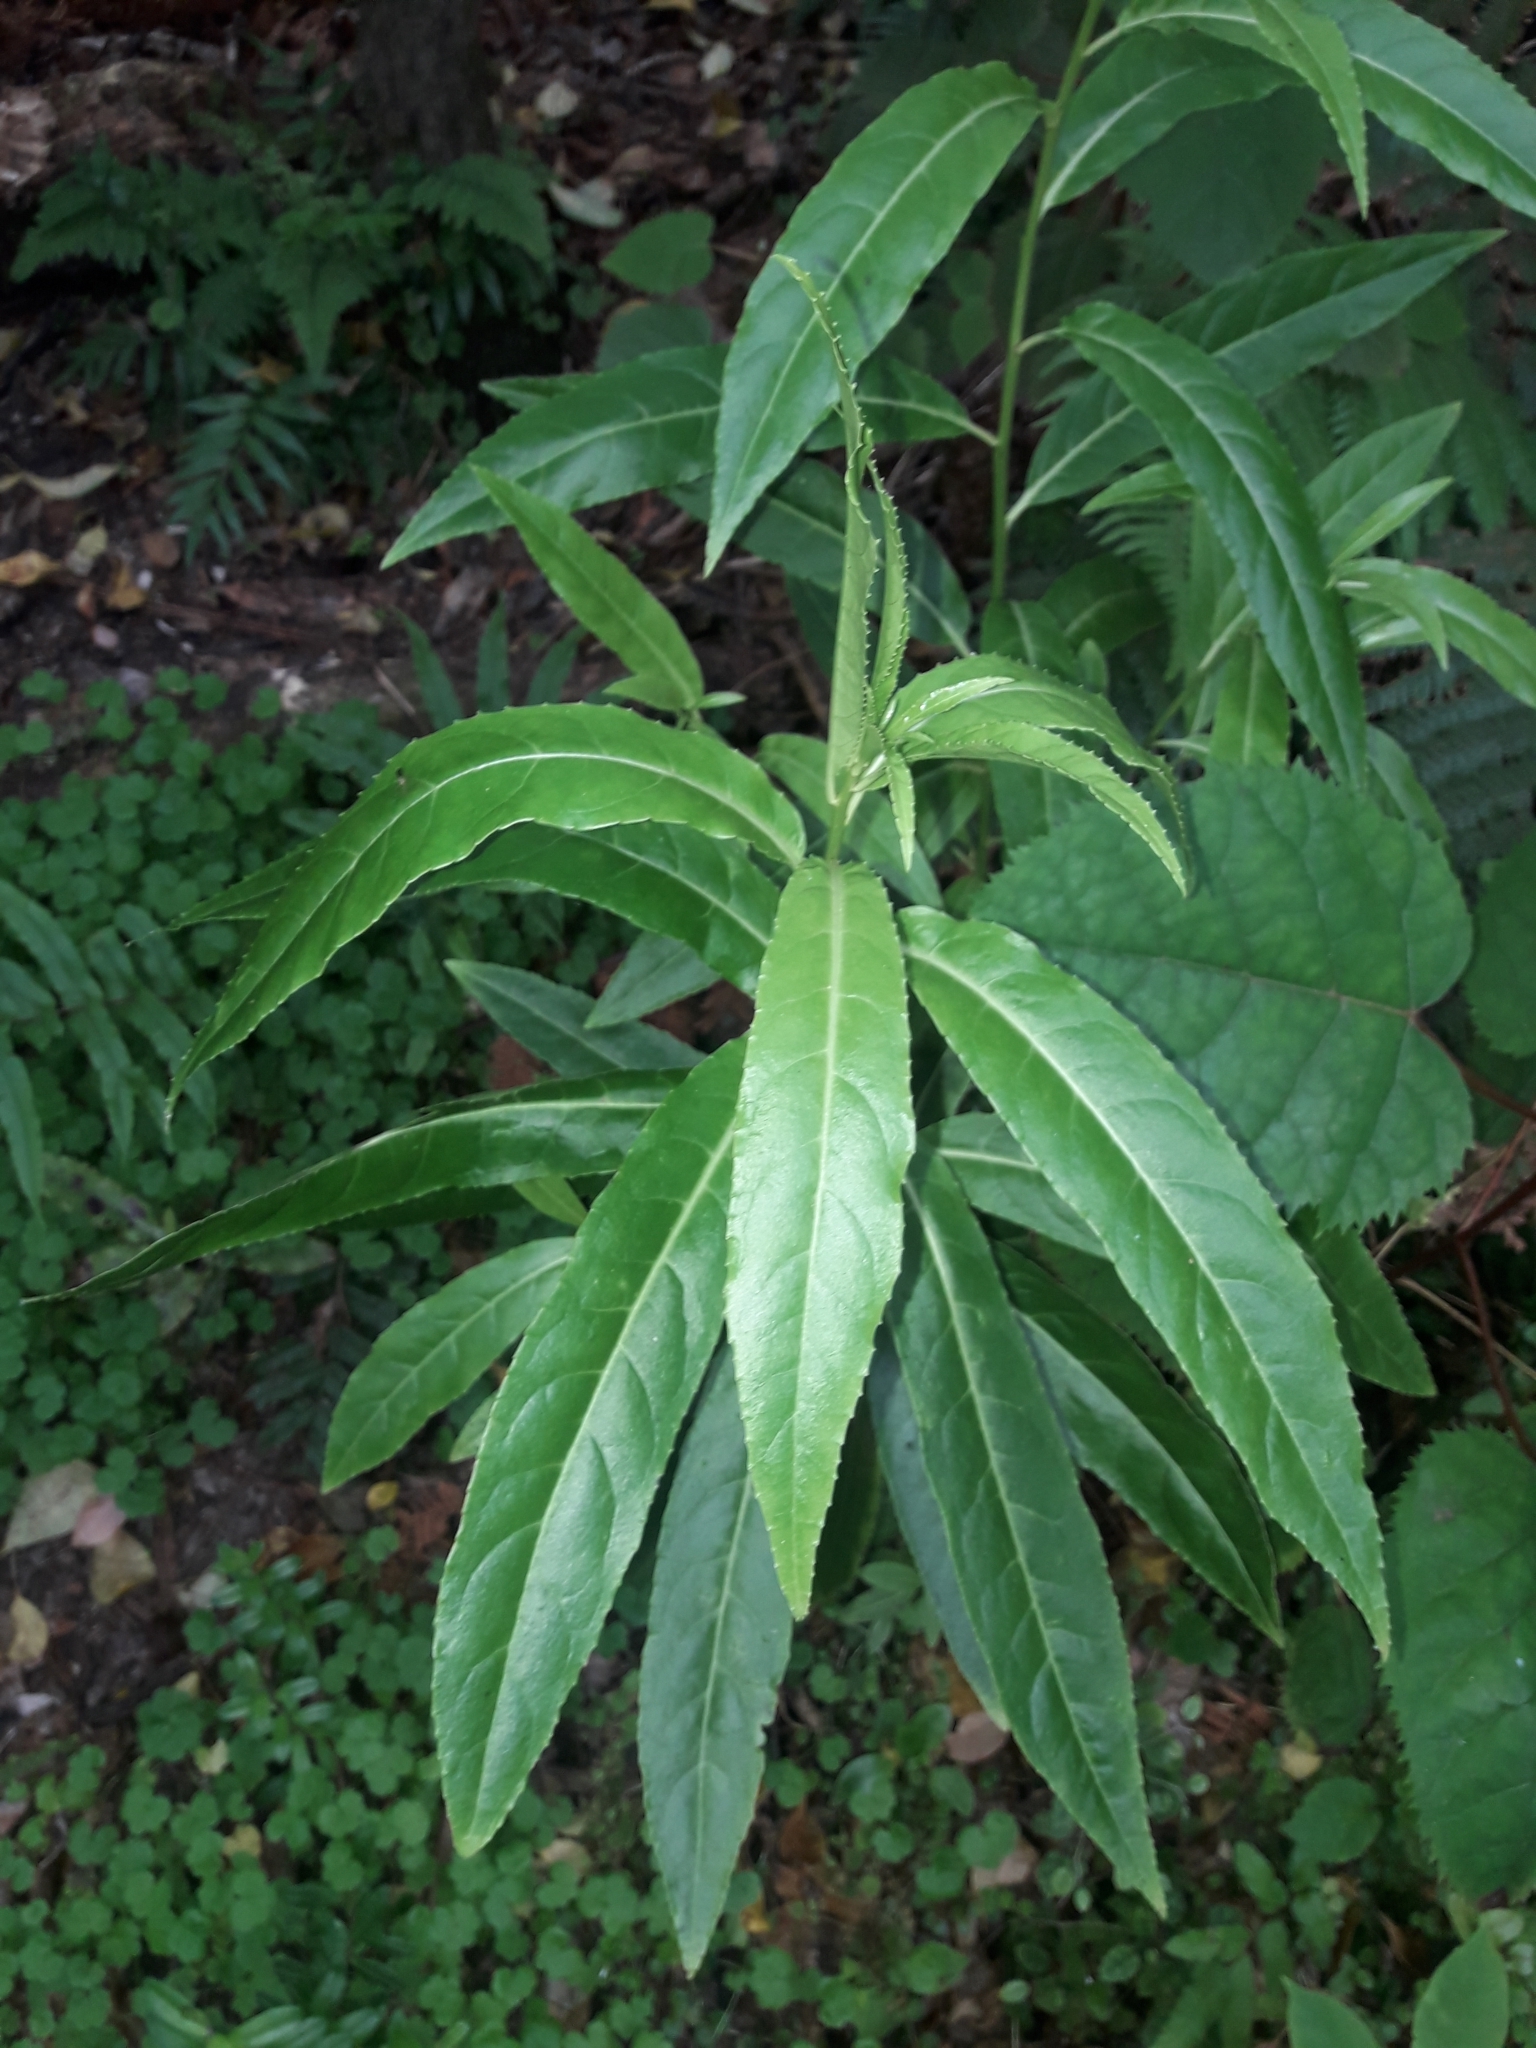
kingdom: Plantae
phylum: Tracheophyta
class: Magnoliopsida
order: Malpighiales
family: Violaceae
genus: Melicytus
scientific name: Melicytus lanceolatus
